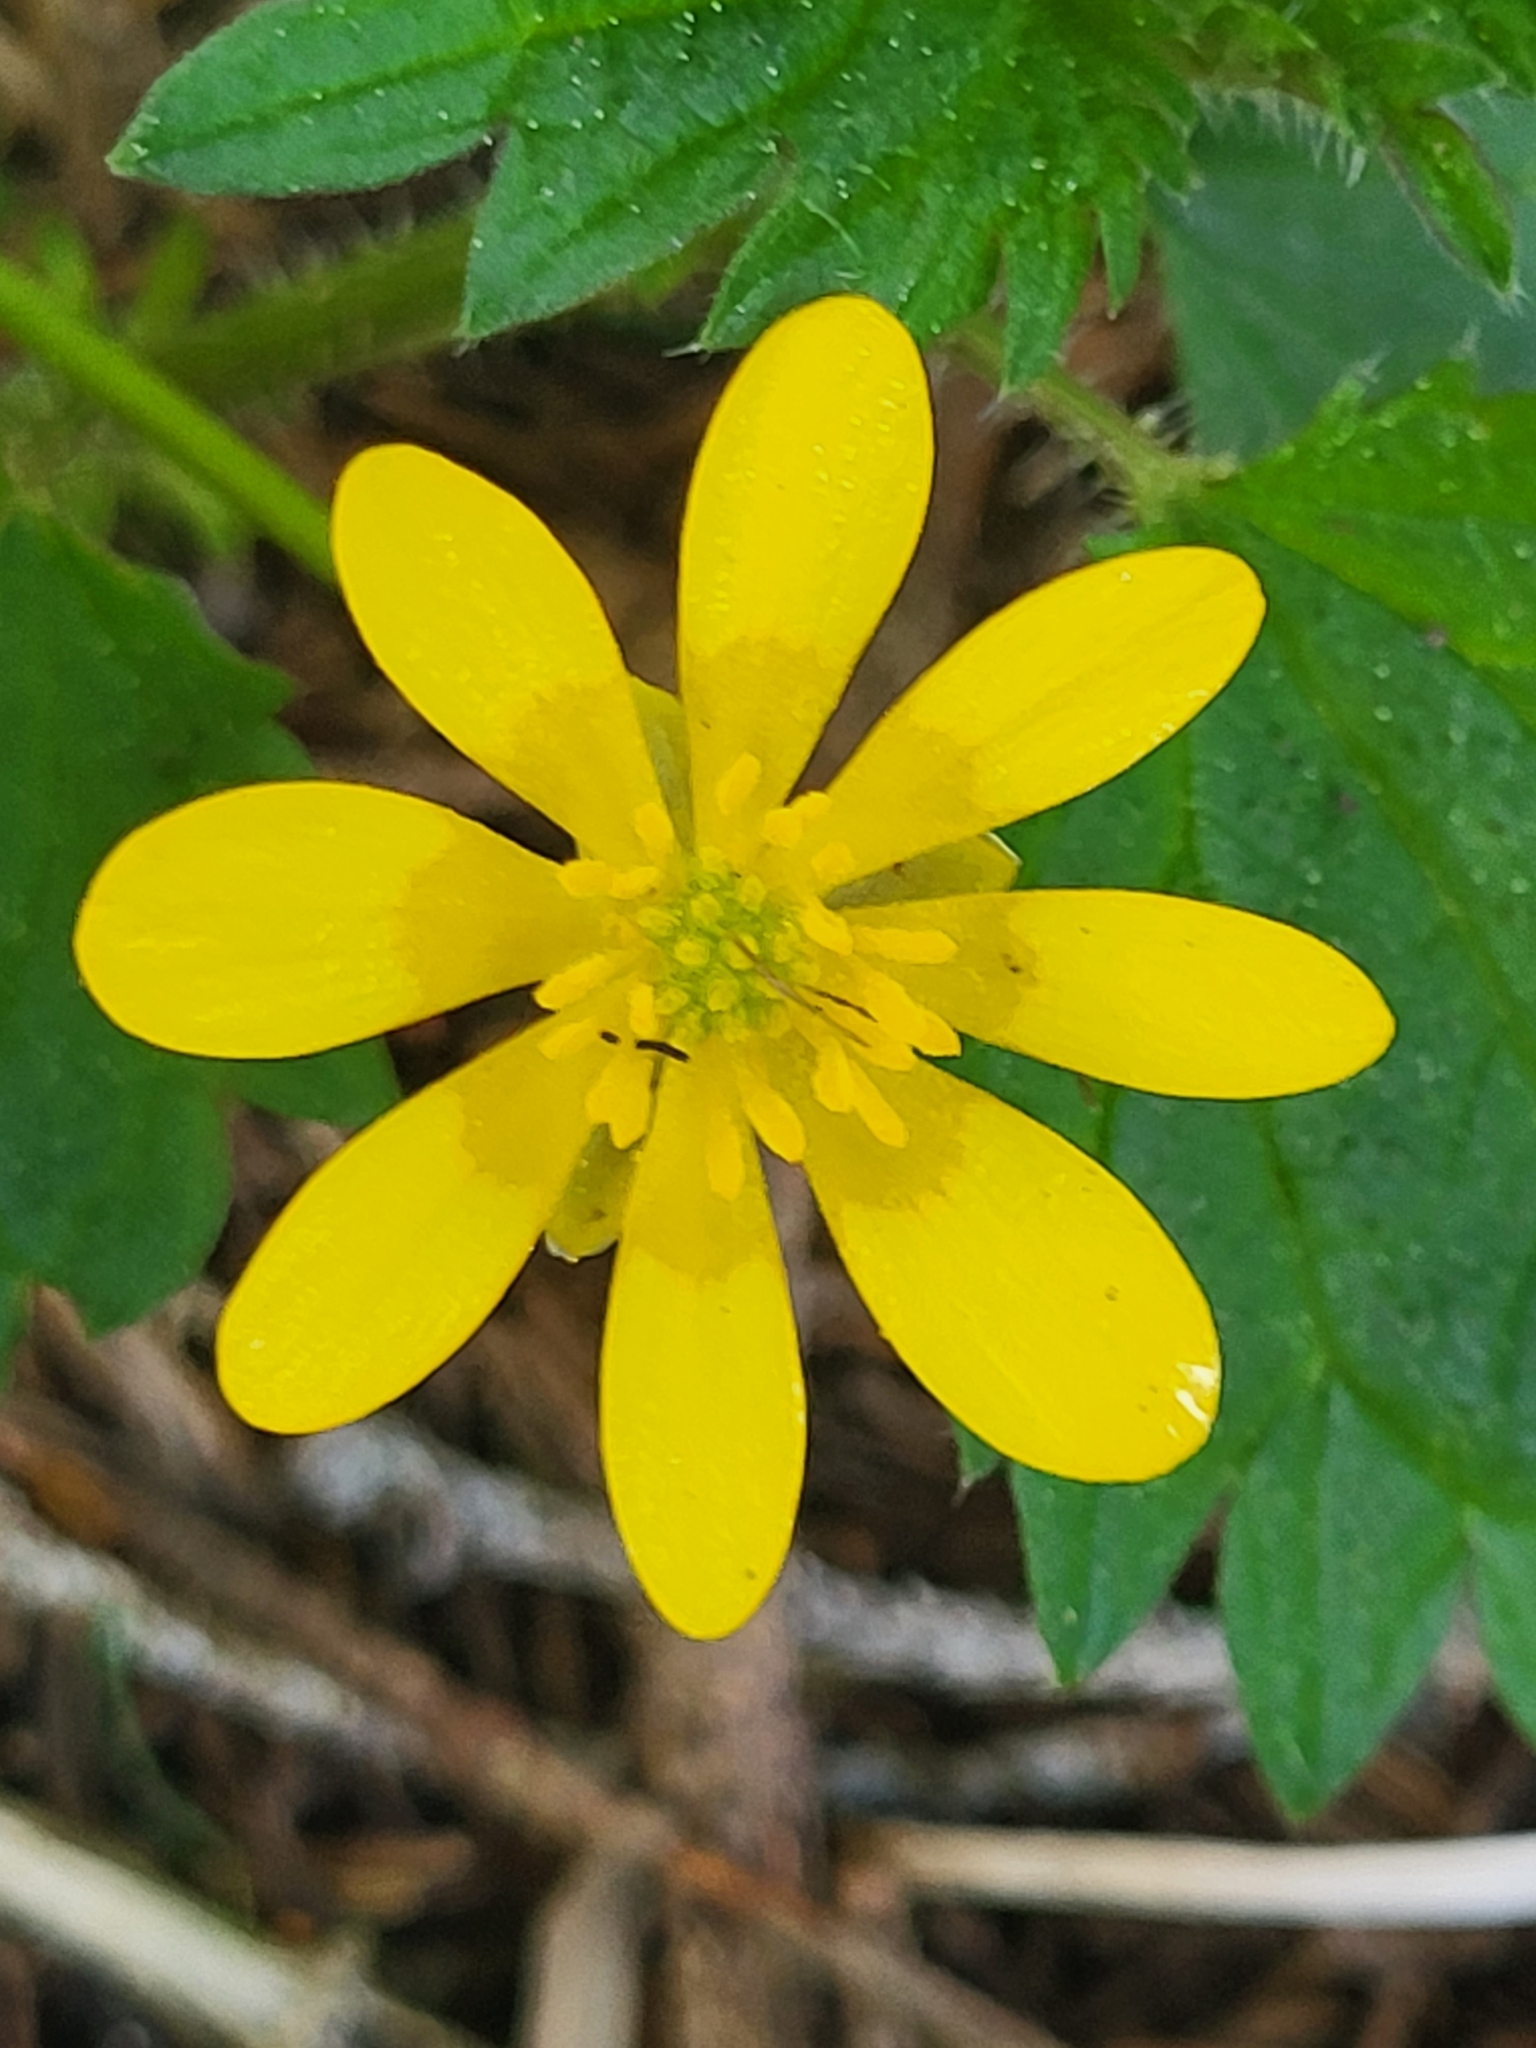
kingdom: Plantae
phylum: Tracheophyta
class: Magnoliopsida
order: Ranunculales
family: Ranunculaceae
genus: Ficaria
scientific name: Ficaria verna
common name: Lesser celandine
